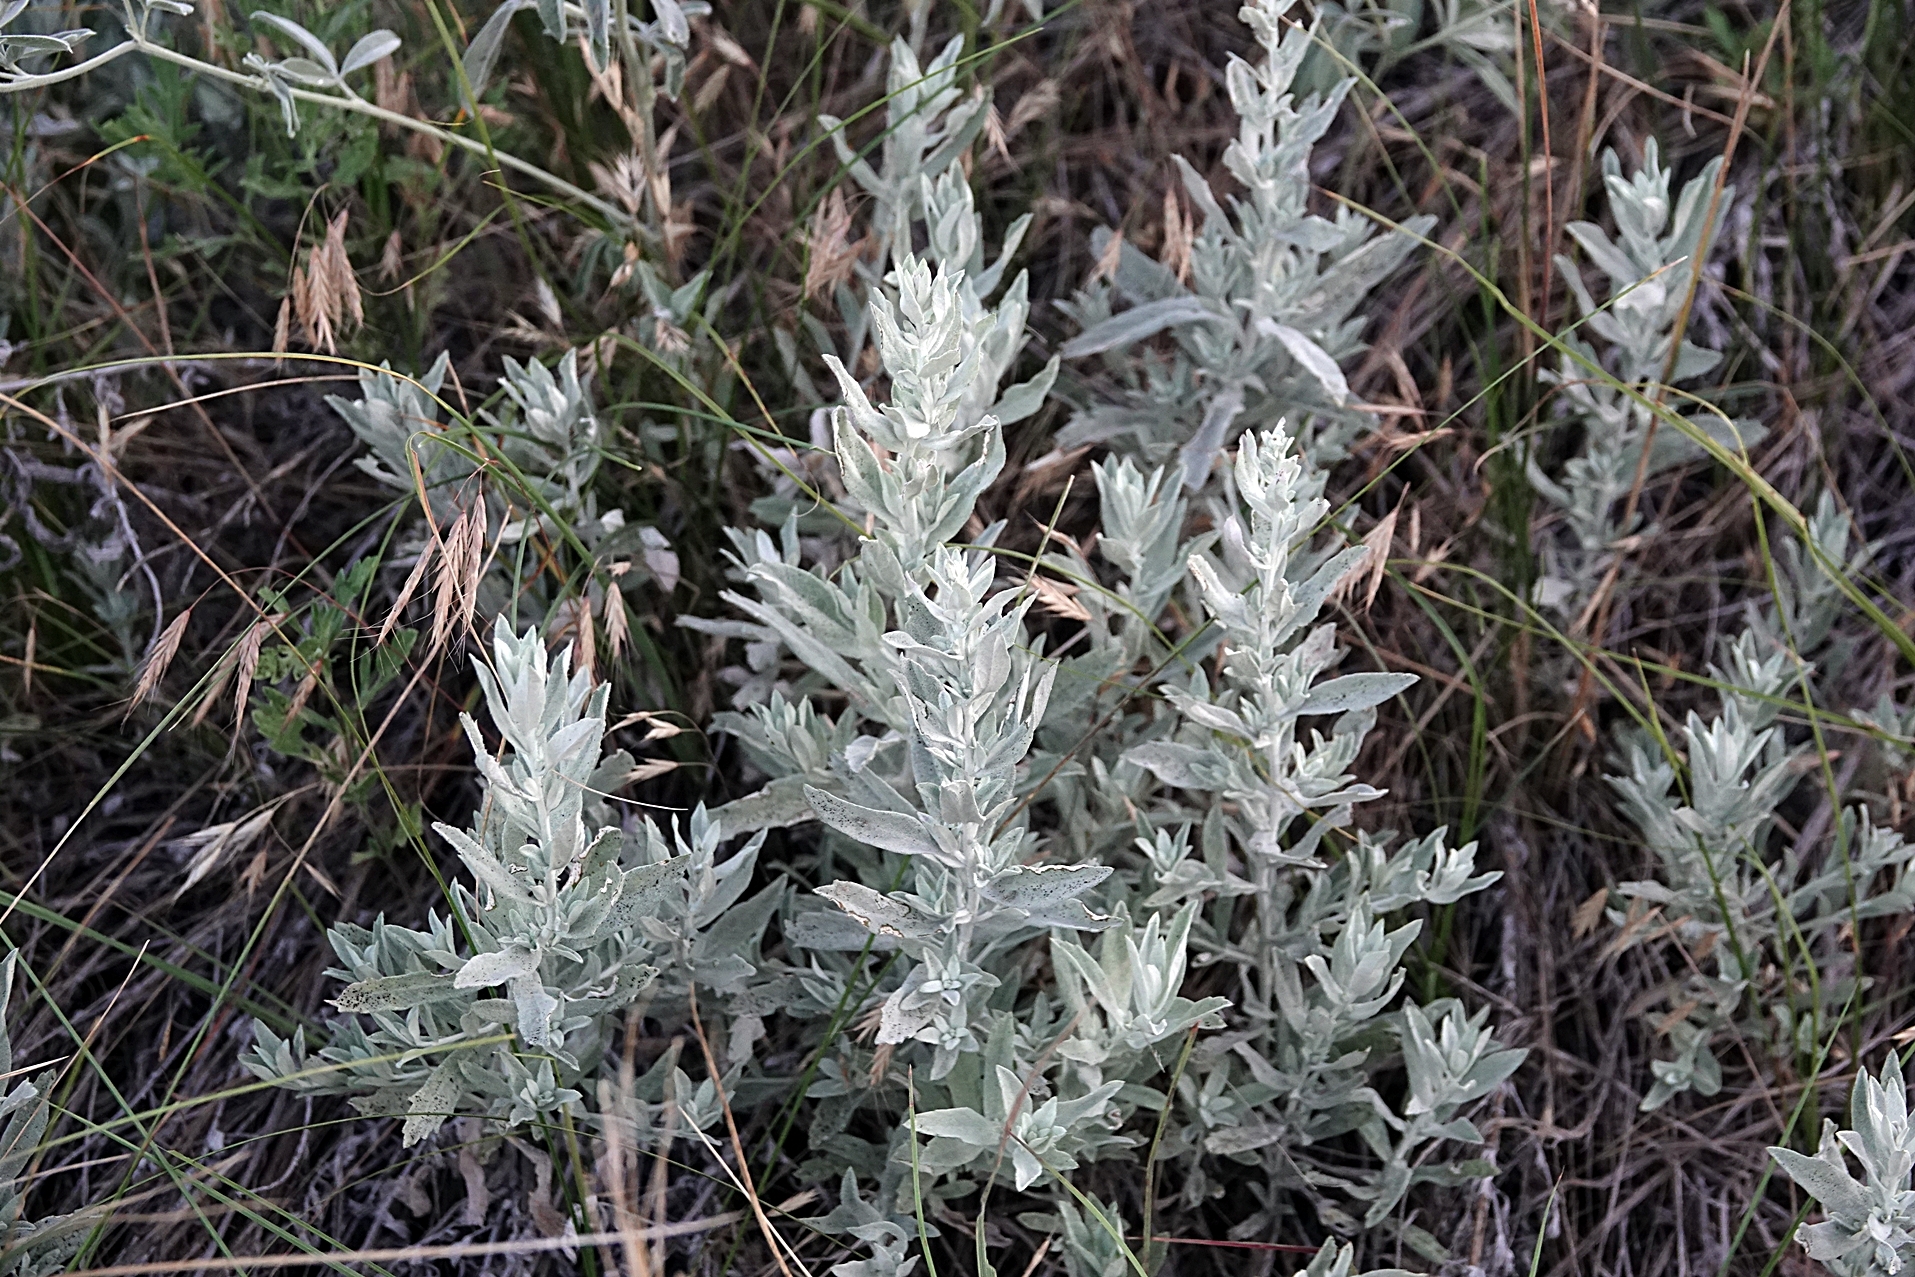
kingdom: Plantae
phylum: Tracheophyta
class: Magnoliopsida
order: Asterales
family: Asteraceae
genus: Artemisia
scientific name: Artemisia ludoviciana
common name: Western mugwort
